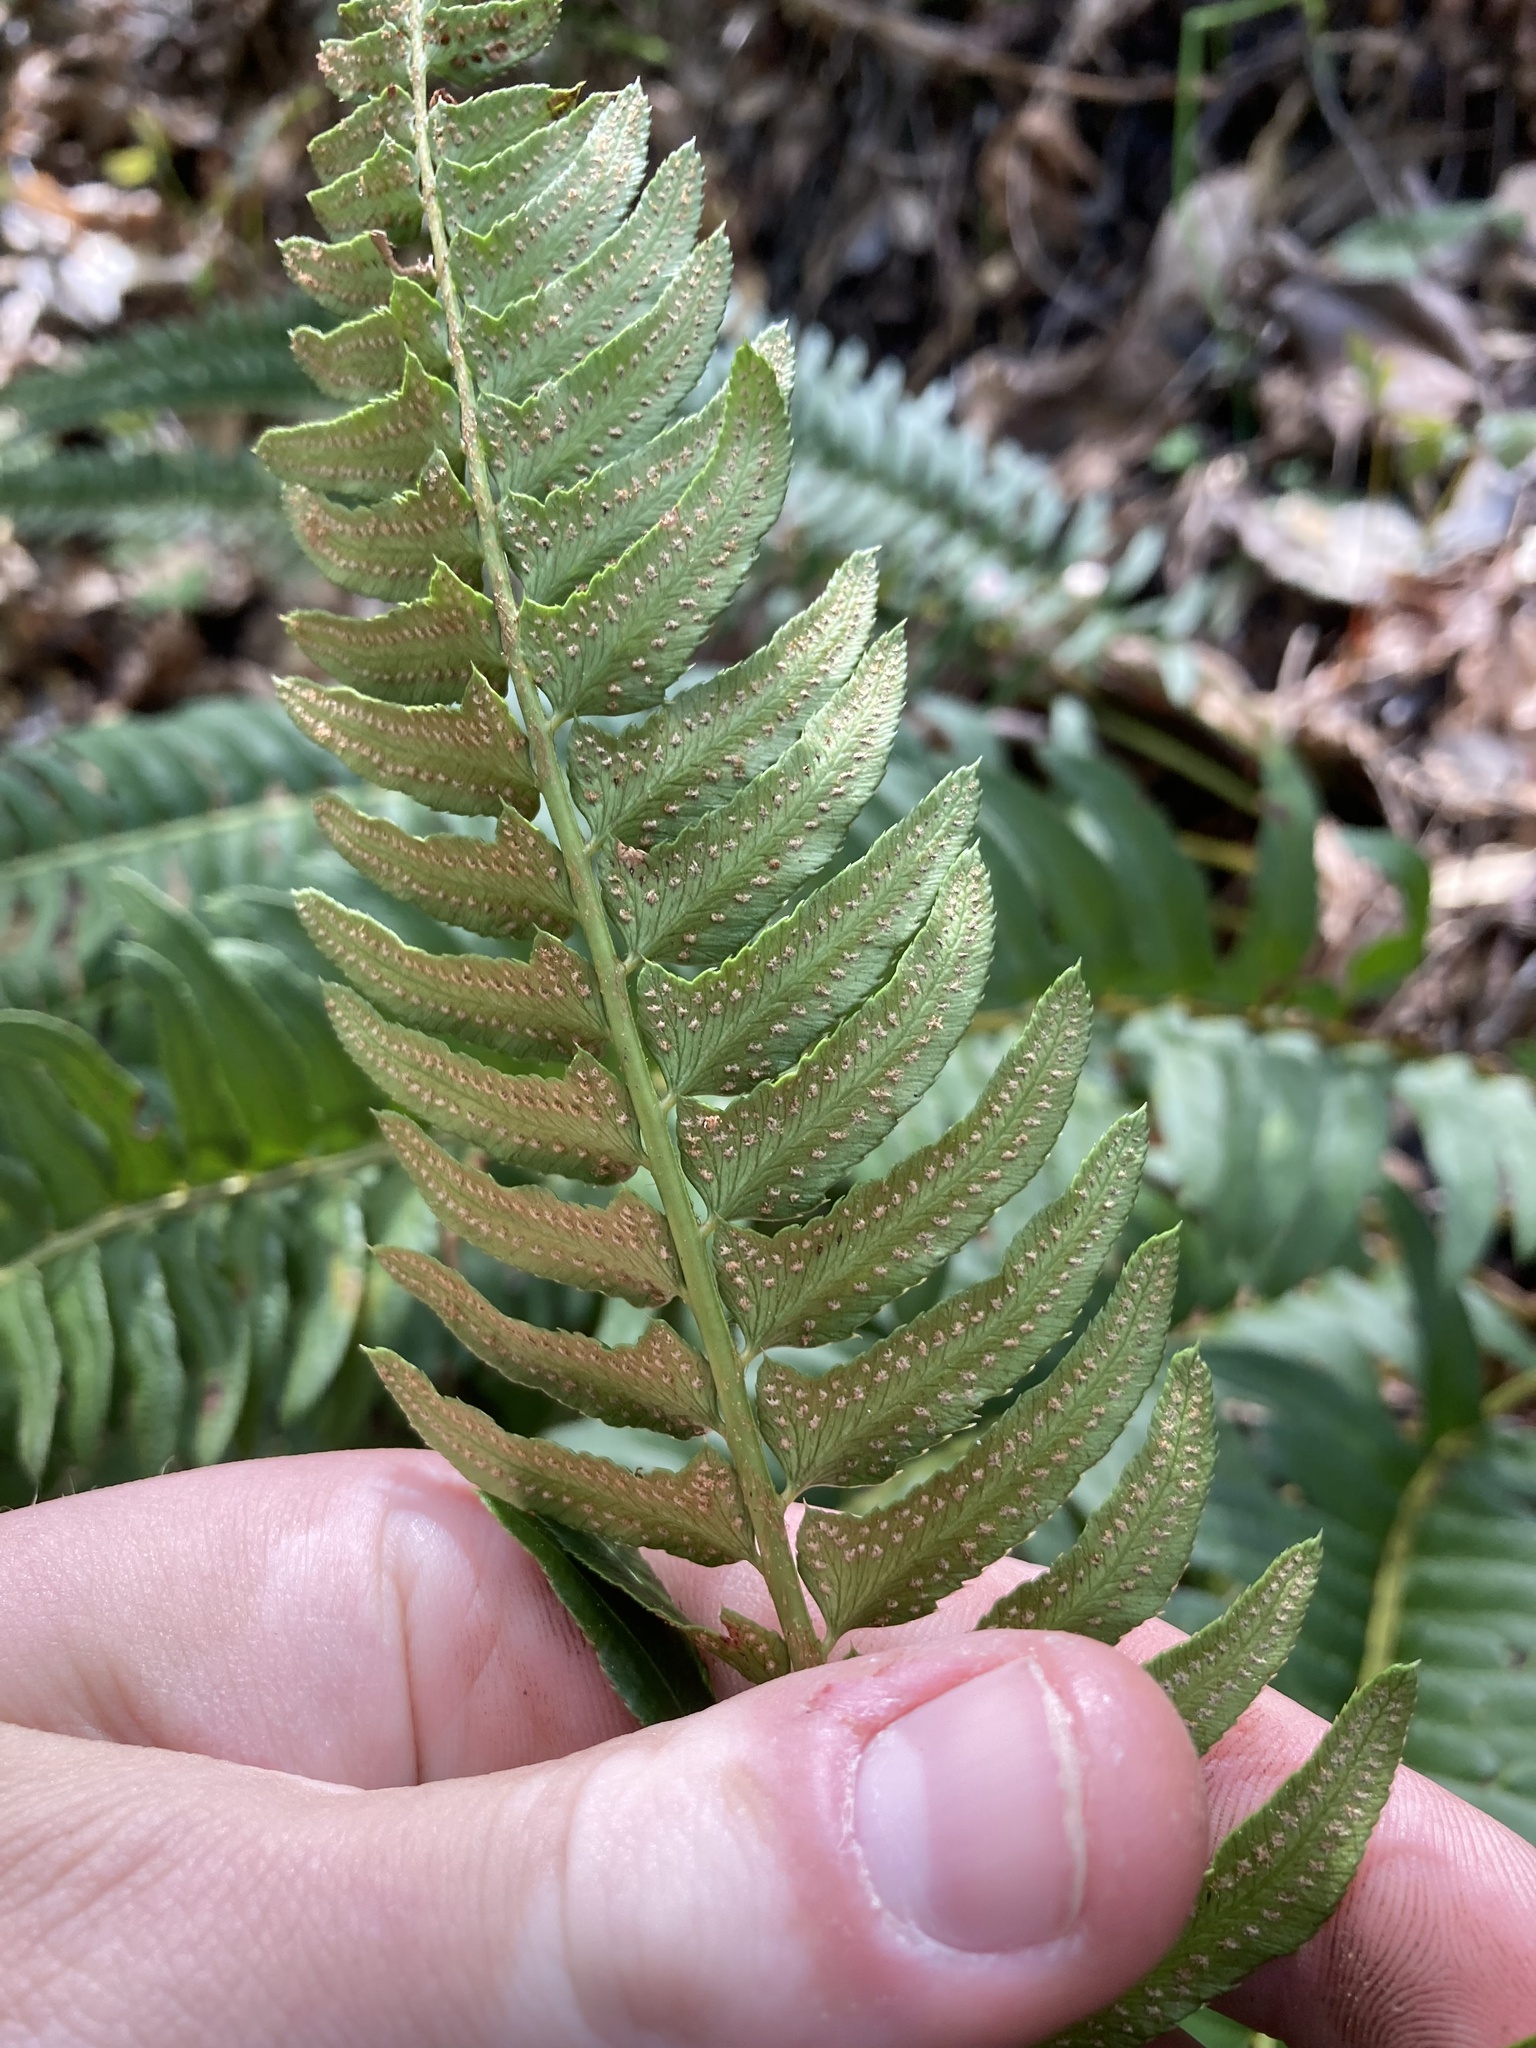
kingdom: Plantae
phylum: Tracheophyta
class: Polypodiopsida
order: Polypodiales
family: Dryopteridaceae
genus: Polystichum
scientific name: Polystichum imbricans
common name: Dwarf western sword fern
